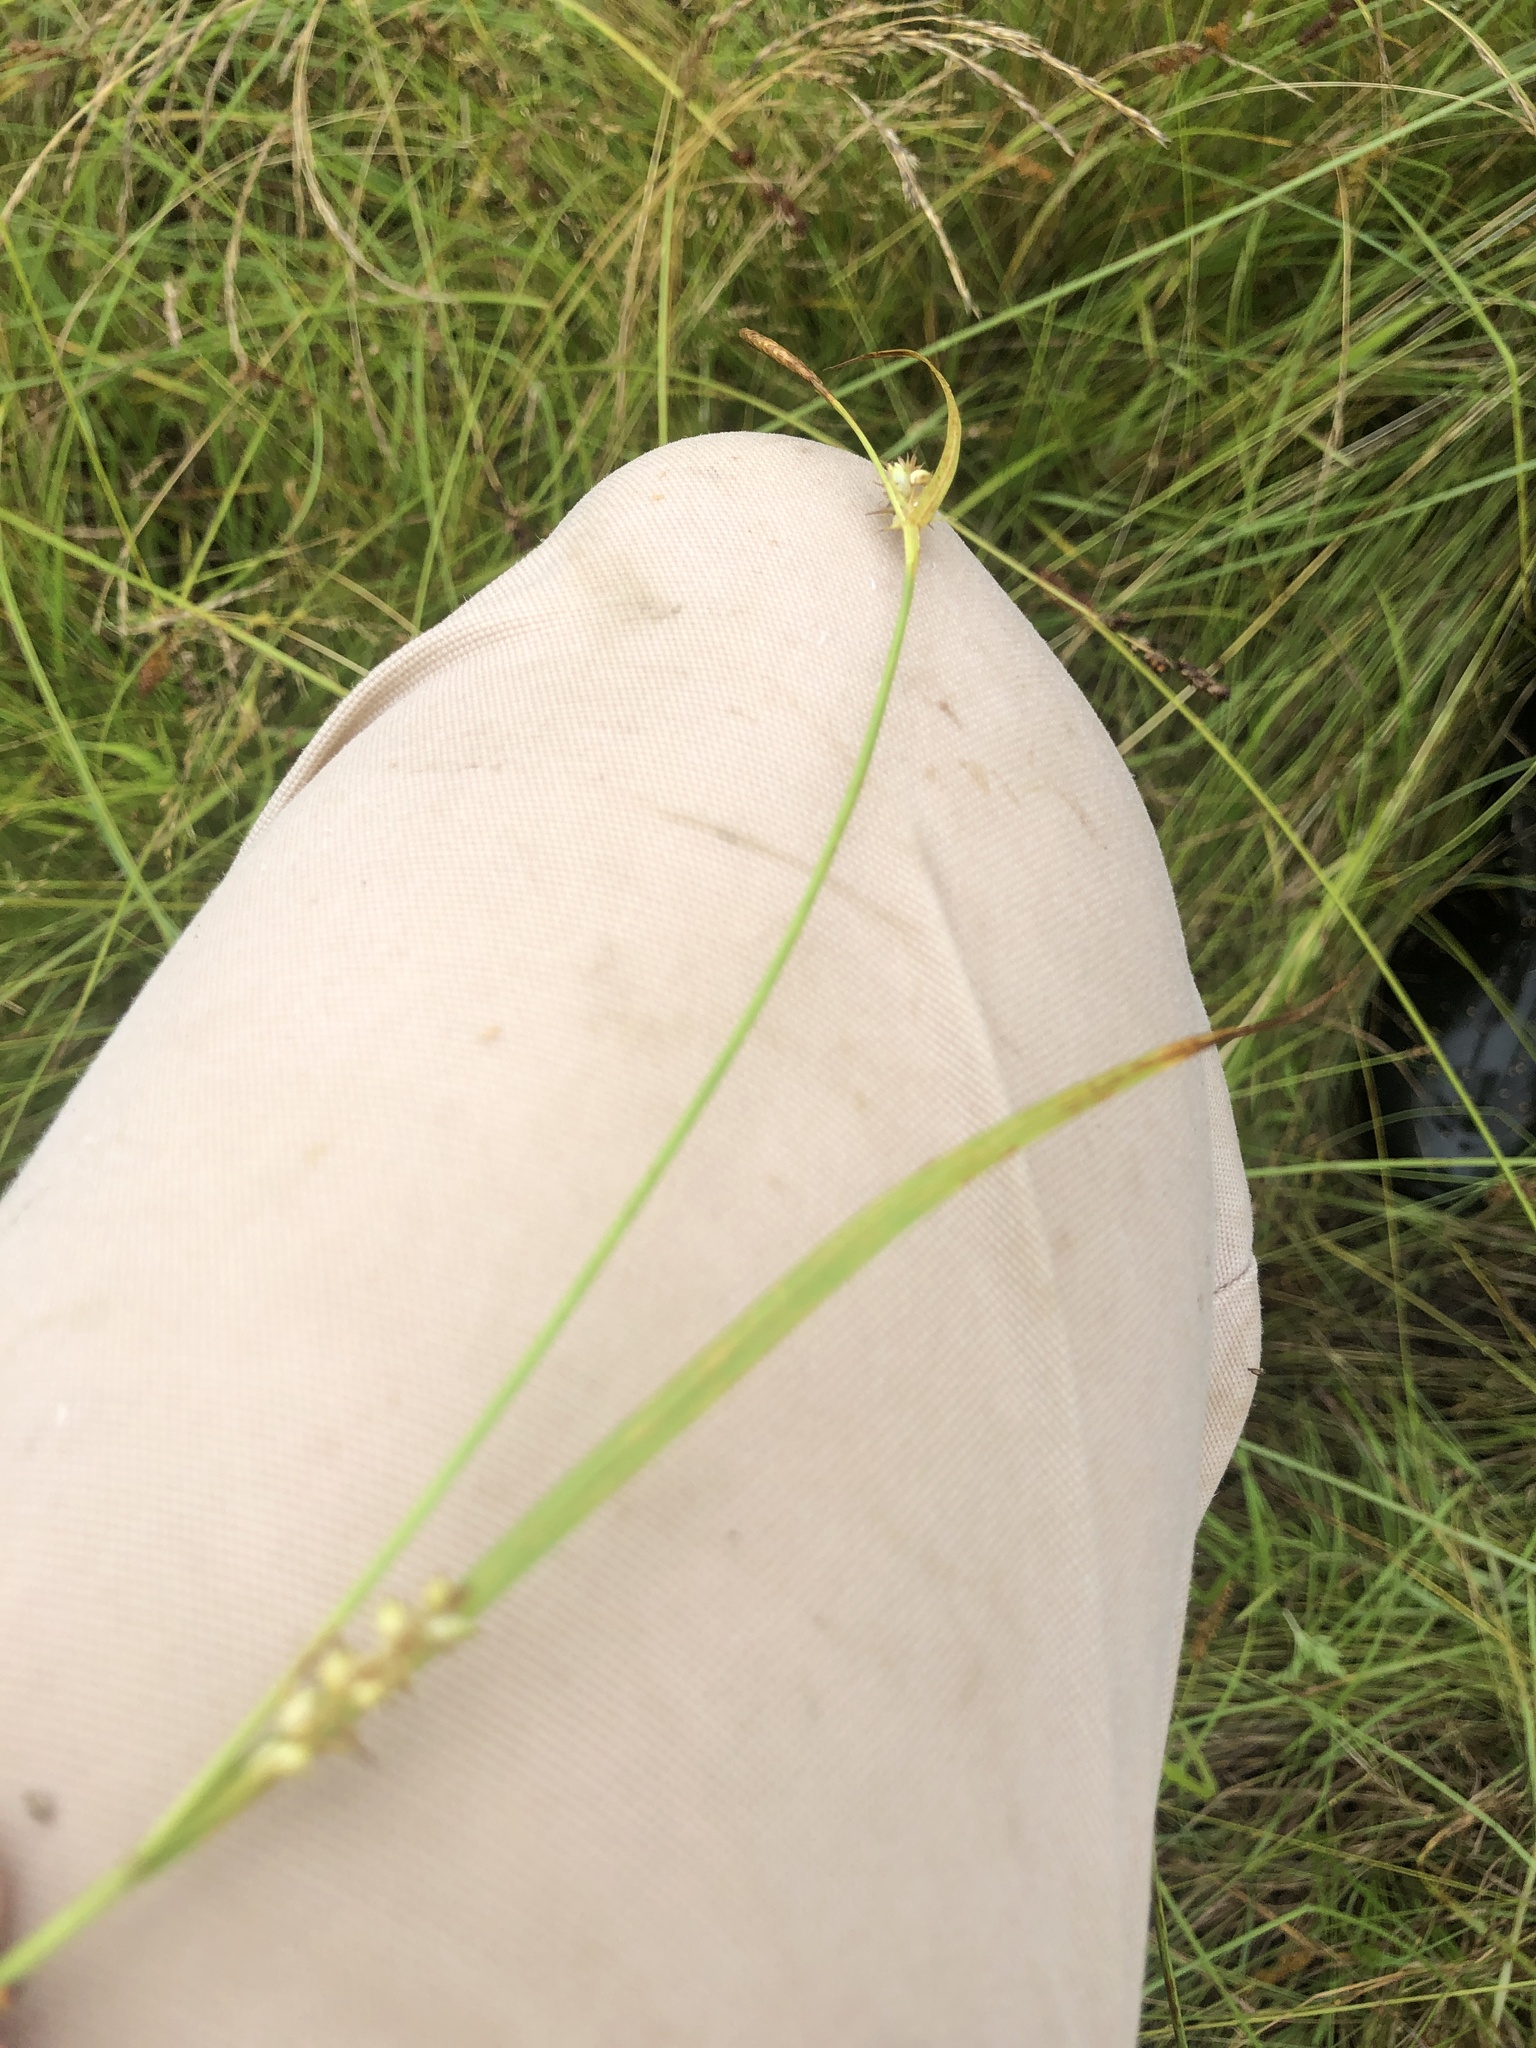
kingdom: Plantae
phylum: Tracheophyta
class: Liliopsida
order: Poales
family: Cyperaceae
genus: Carex
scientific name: Carex conoidea
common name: Cone shaped sedge
